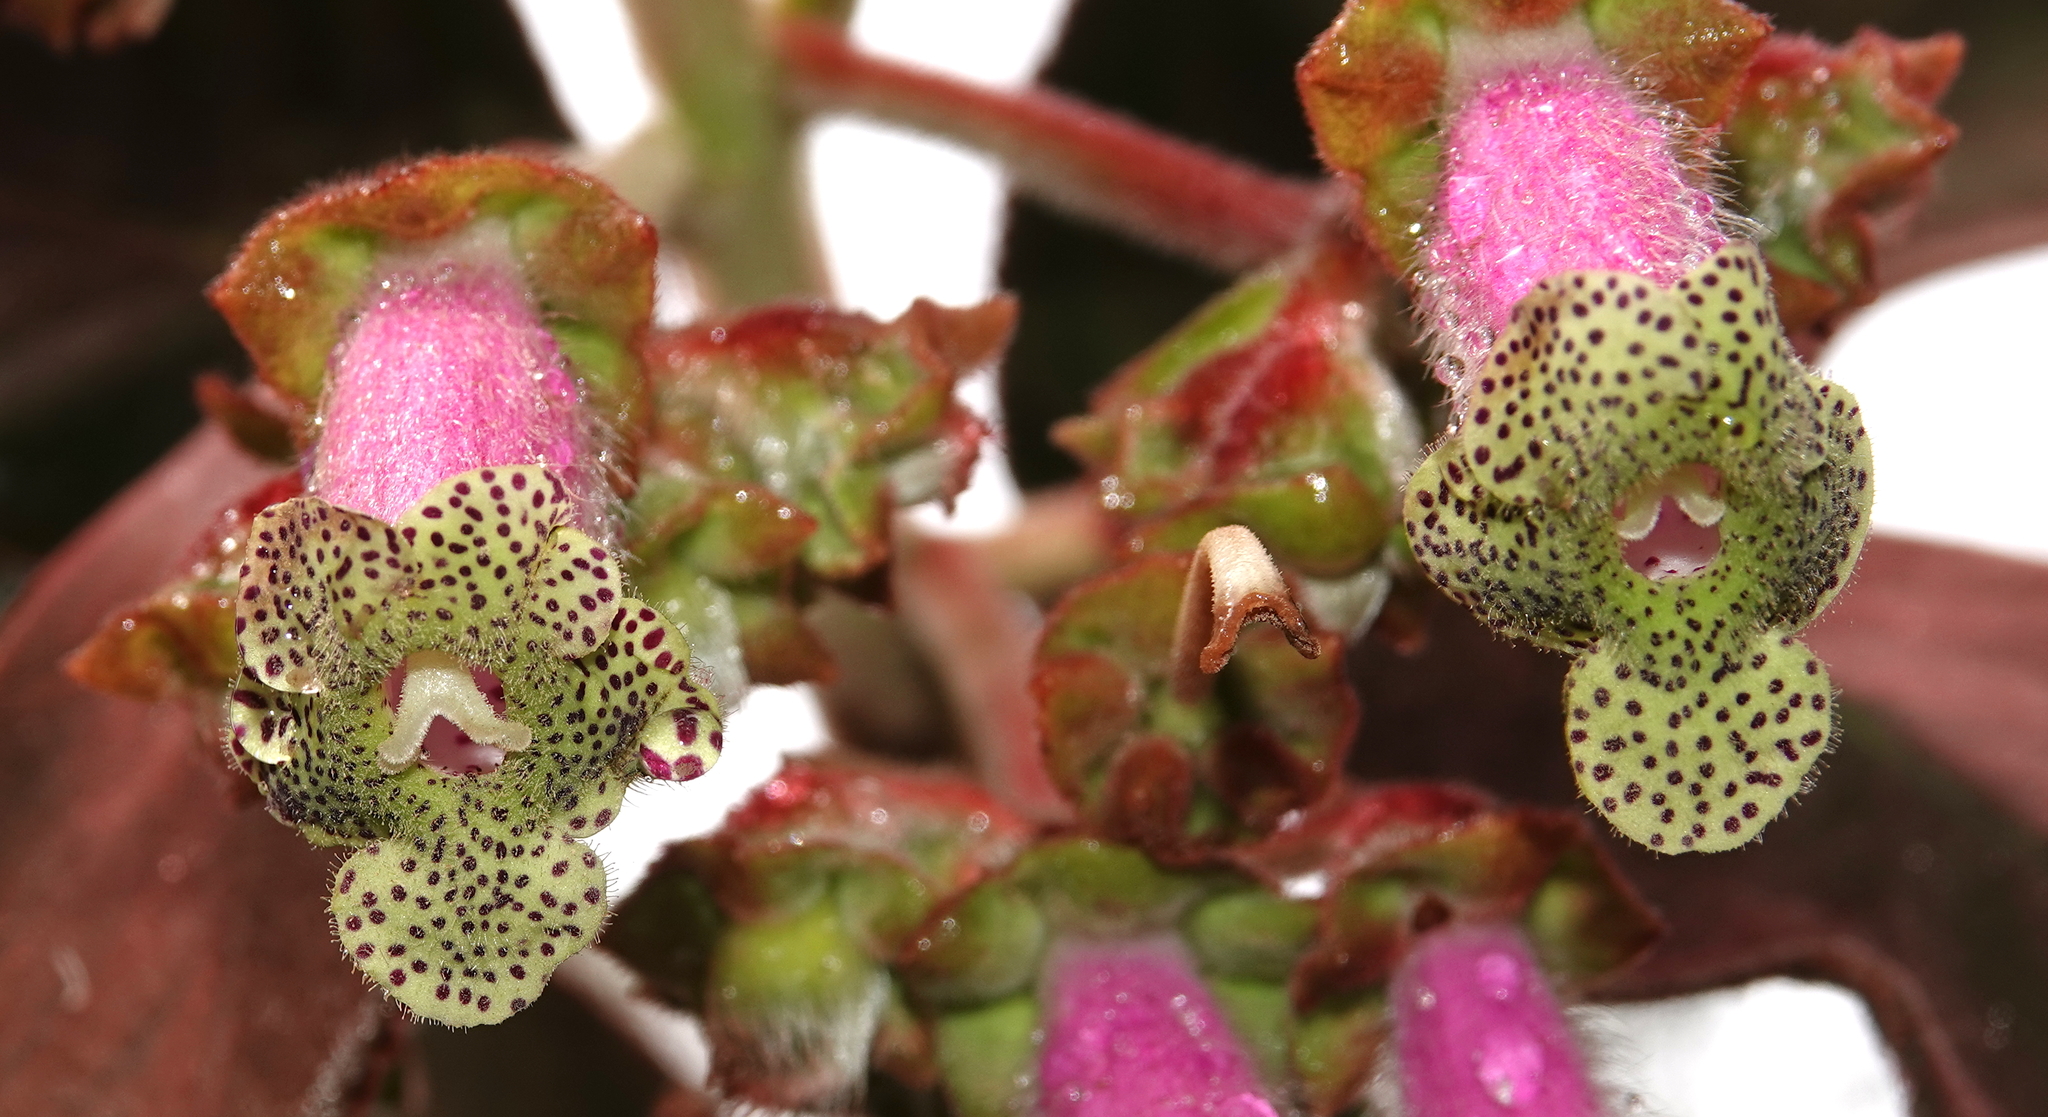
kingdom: Plantae
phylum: Tracheophyta
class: Magnoliopsida
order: Lamiales
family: Gesneriaceae
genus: Kohleria
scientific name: Kohleria warszewiczii
